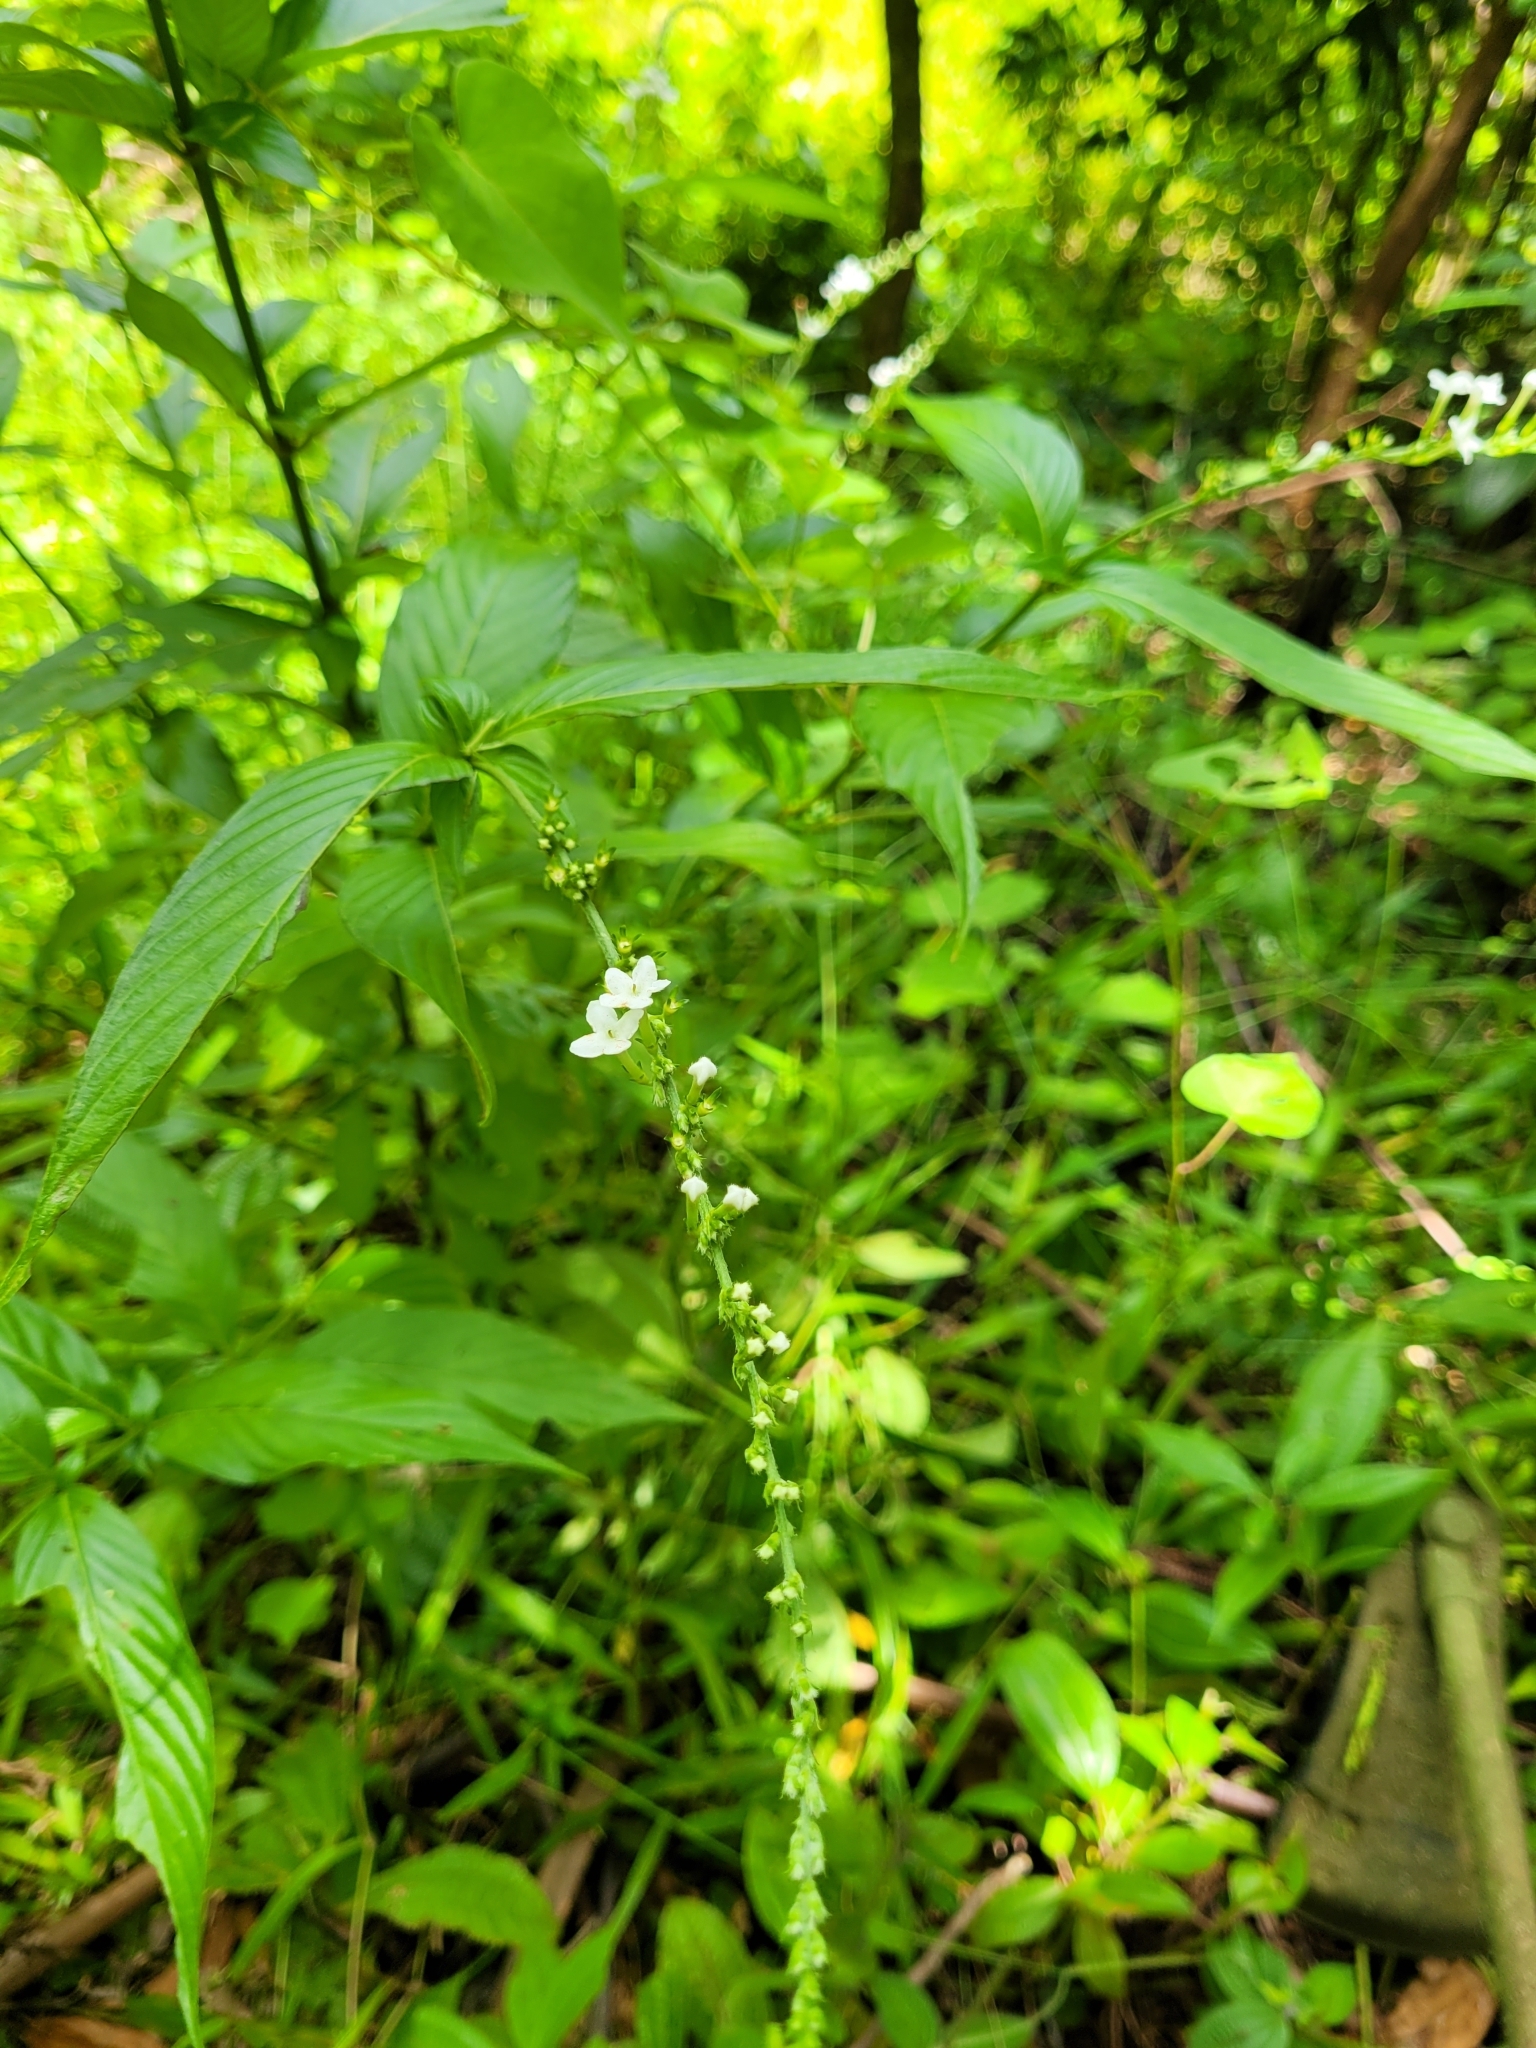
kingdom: Plantae
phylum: Tracheophyta
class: Magnoliopsida
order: Gentianales
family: Rubiaceae
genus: Gonzalagunia
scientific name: Gonzalagunia hirsuta
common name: Mata de mariposa
